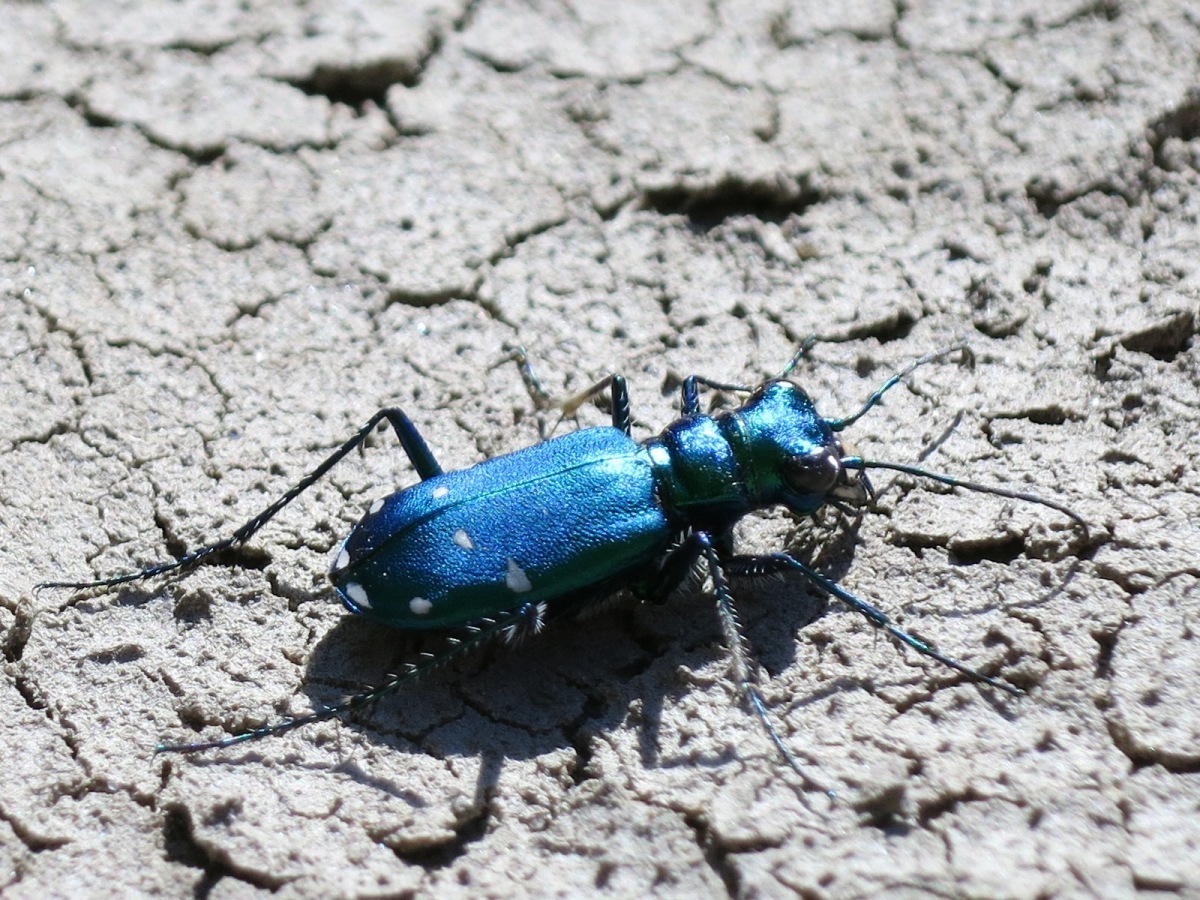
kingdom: Animalia
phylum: Arthropoda
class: Insecta
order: Coleoptera
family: Carabidae
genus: Cicindela
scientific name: Cicindela sexguttata
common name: Six-spotted tiger beetle
